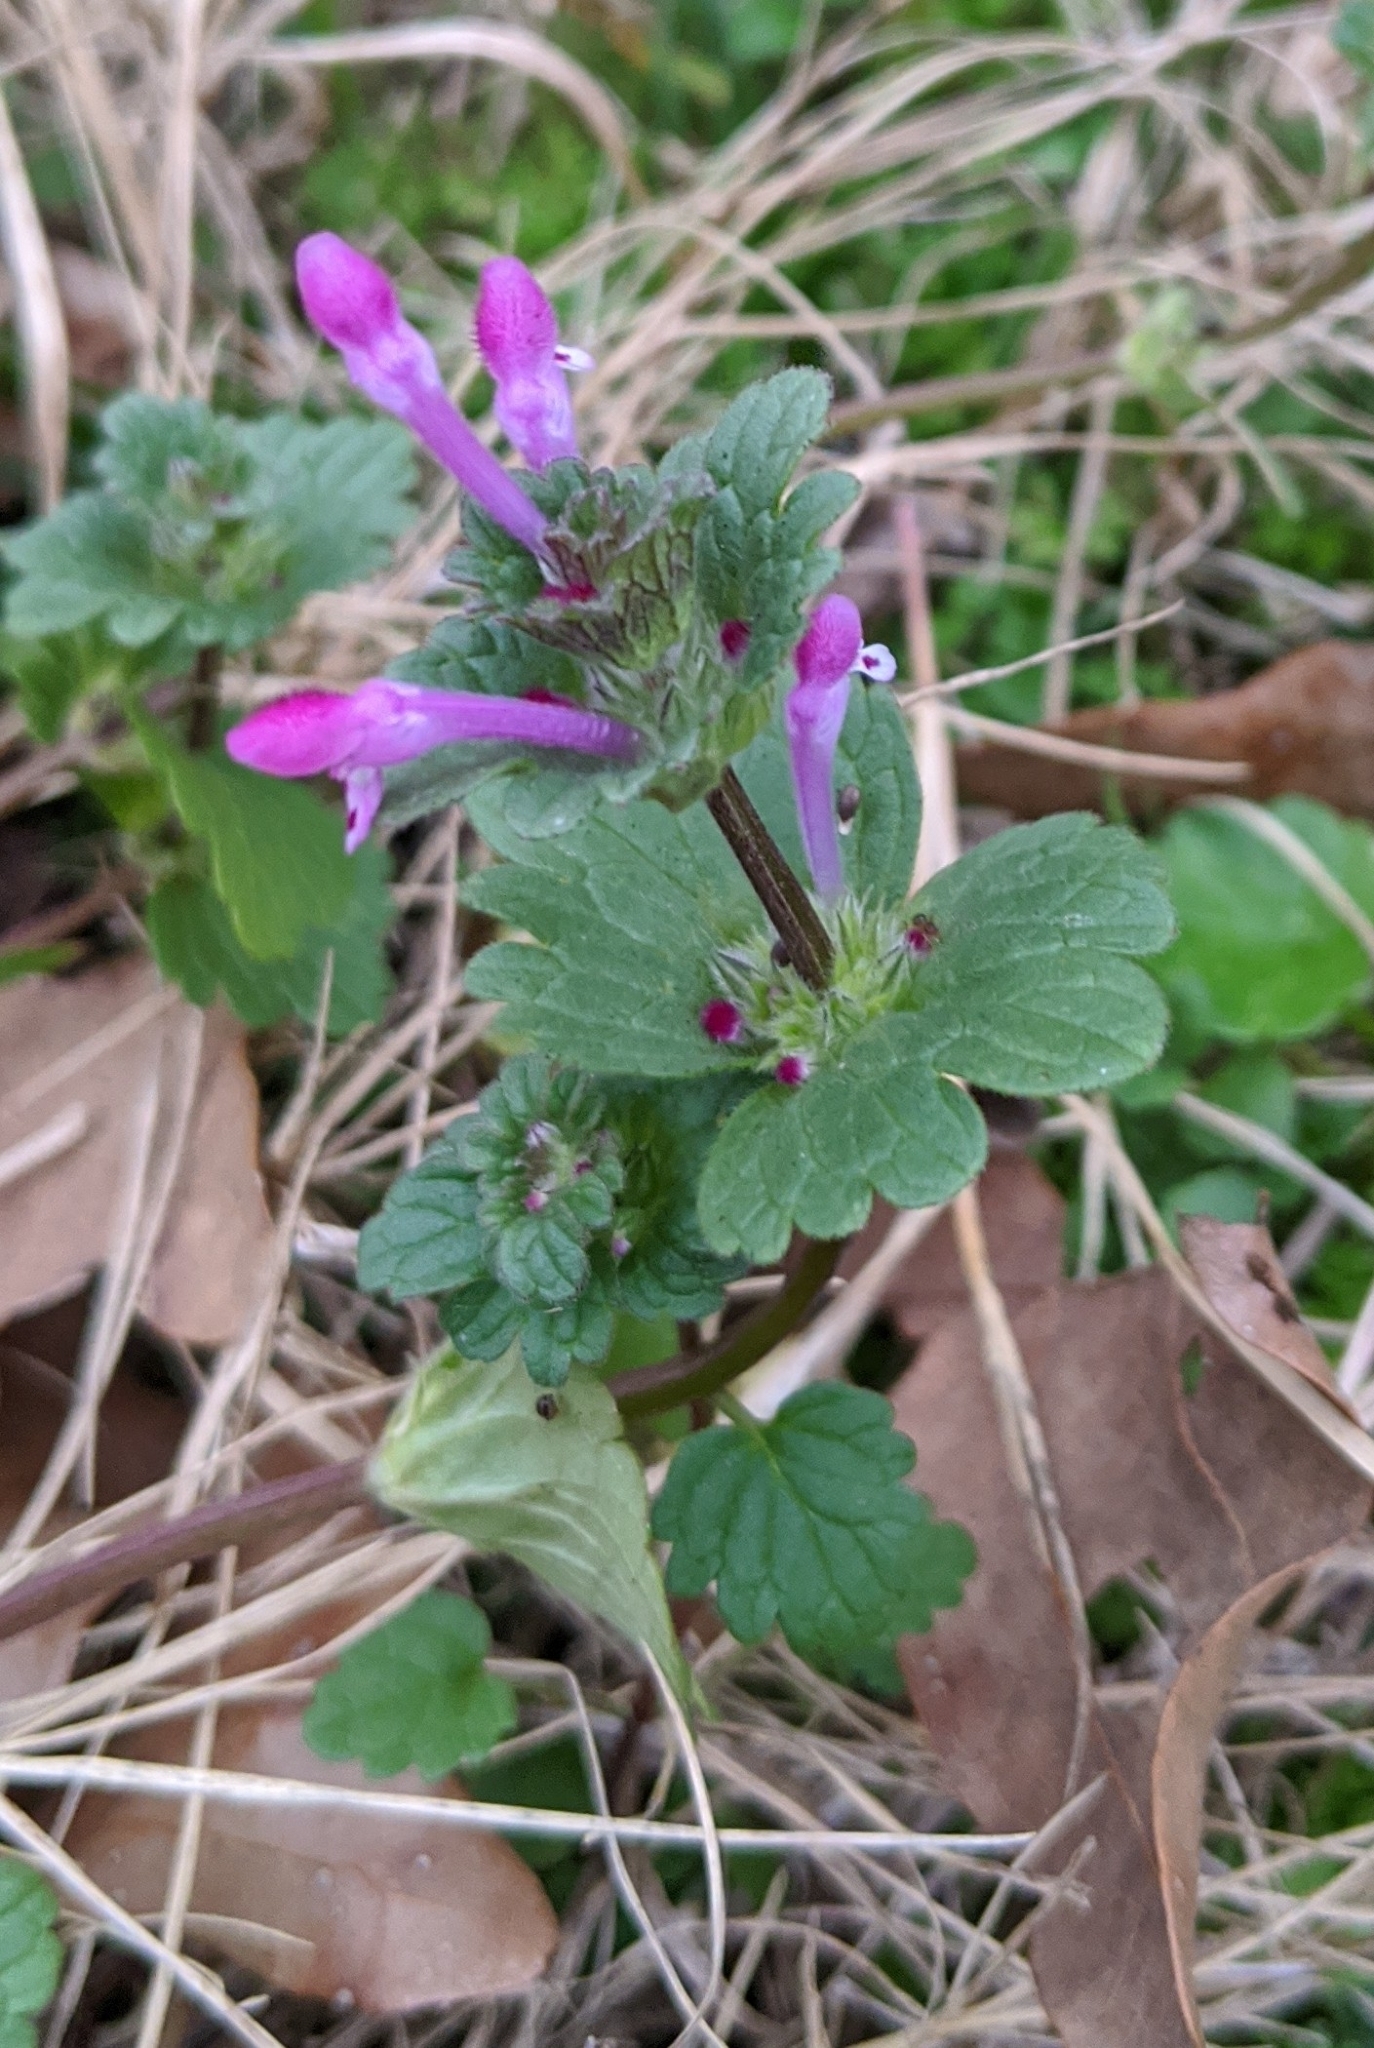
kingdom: Plantae
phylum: Tracheophyta
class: Magnoliopsida
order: Lamiales
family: Lamiaceae
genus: Lamium
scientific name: Lamium amplexicaule
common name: Henbit dead-nettle
